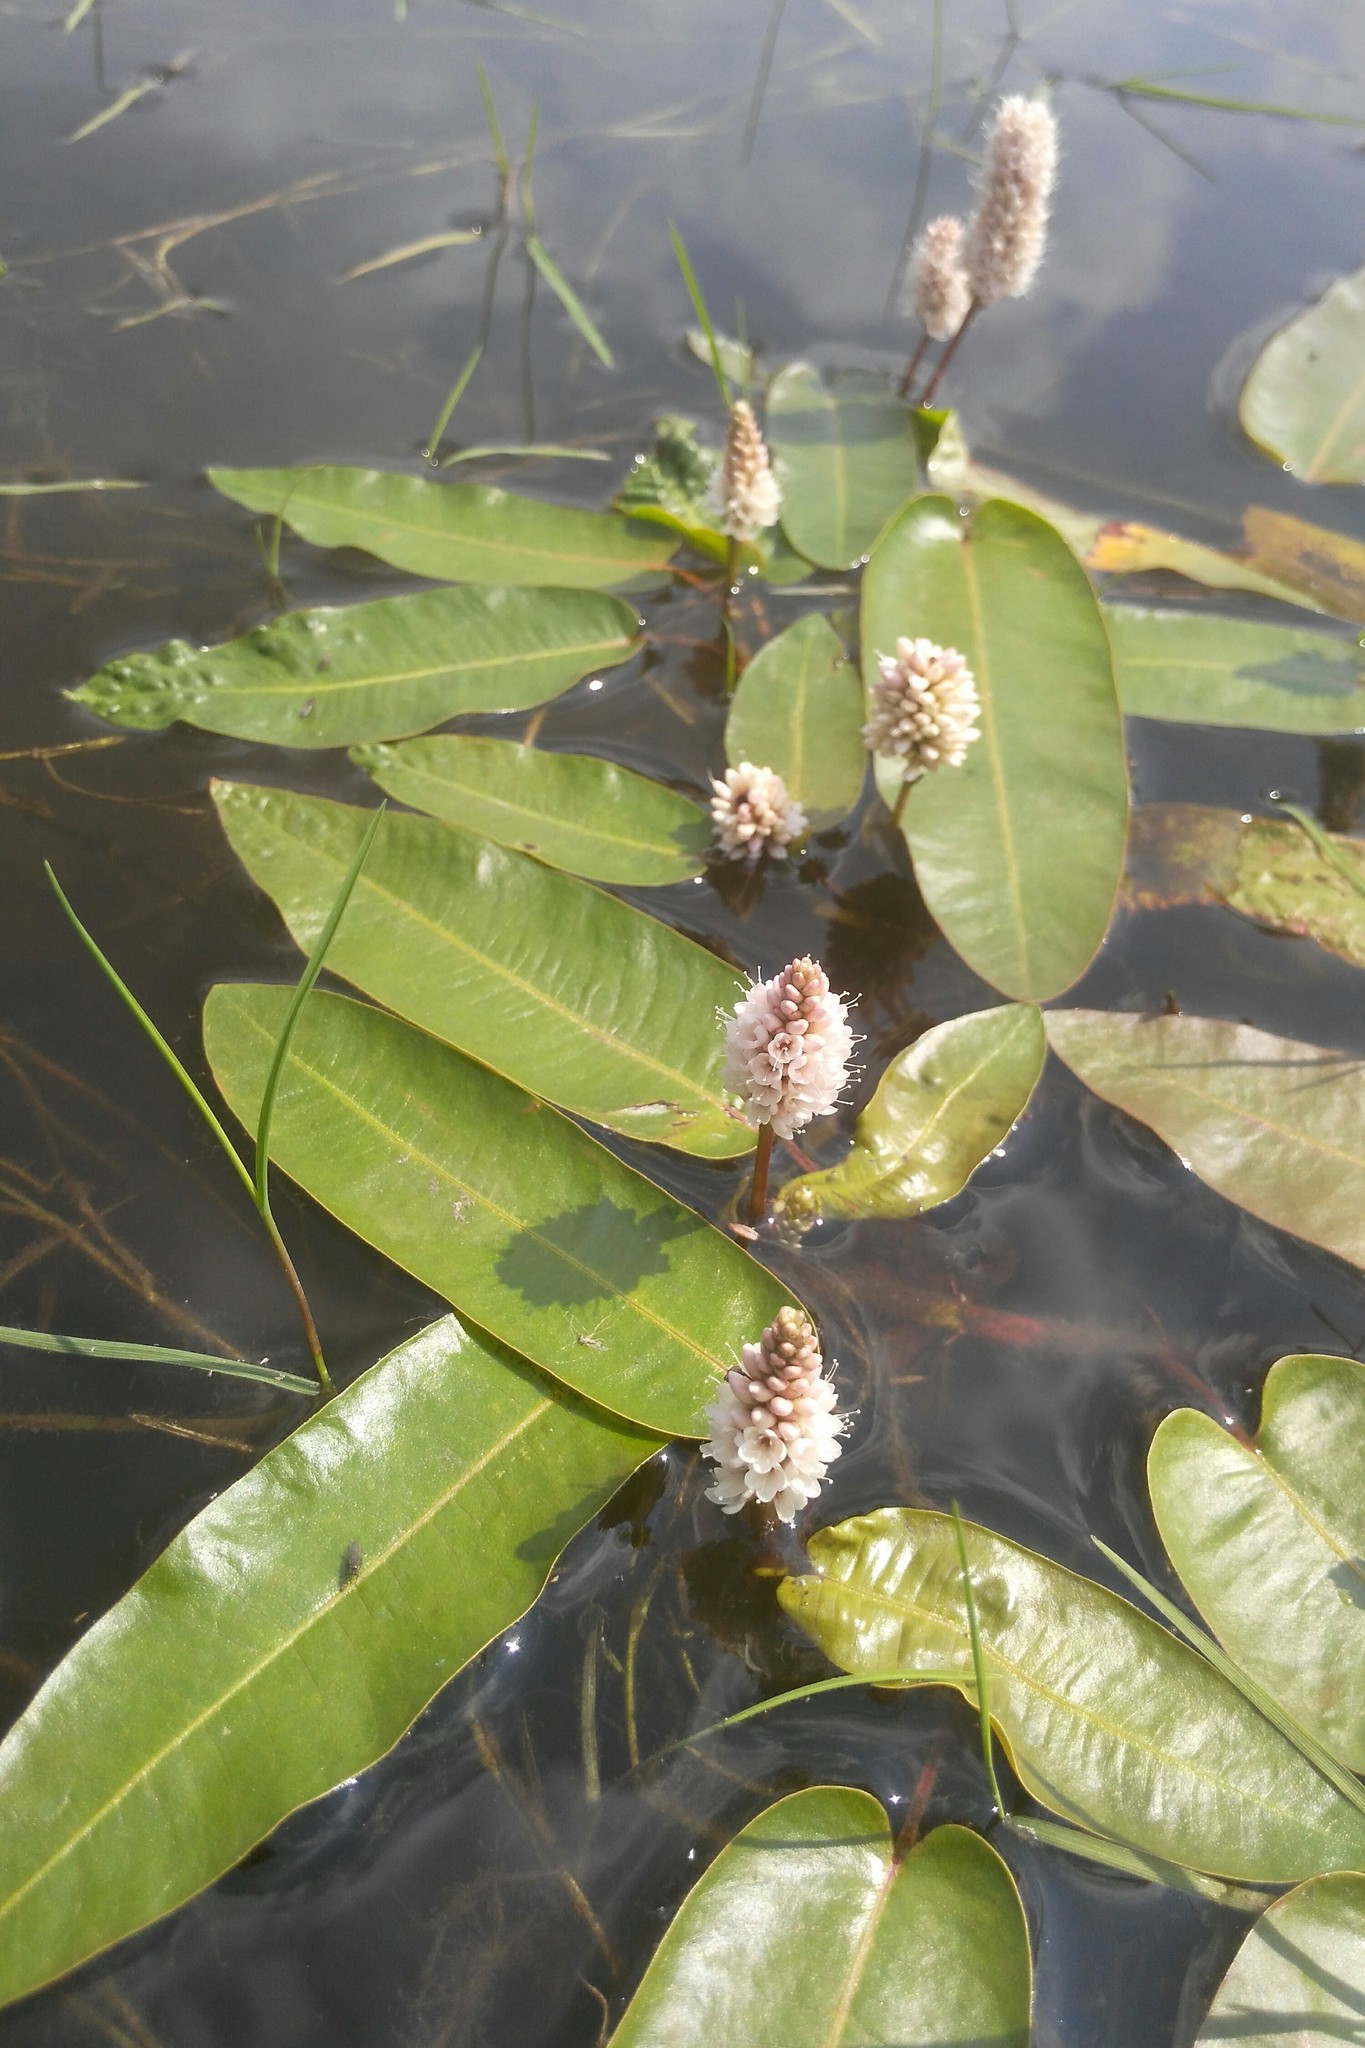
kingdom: Plantae
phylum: Tracheophyta
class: Magnoliopsida
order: Caryophyllales
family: Polygonaceae
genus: Persicaria
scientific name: Persicaria amphibia
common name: Amphibious bistort
